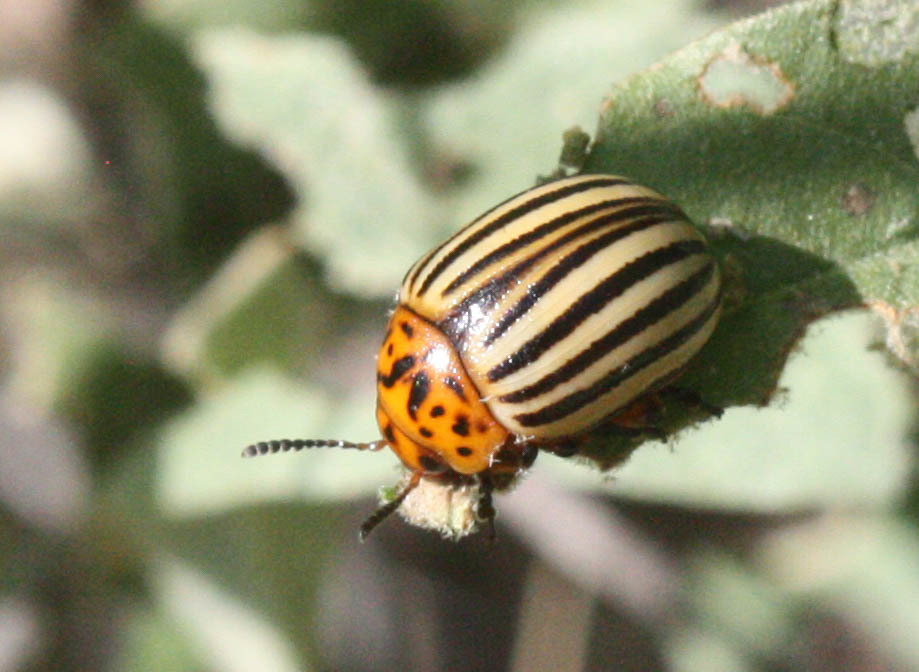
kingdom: Animalia
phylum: Arthropoda
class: Insecta
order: Coleoptera
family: Chrysomelidae
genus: Leptinotarsa
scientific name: Leptinotarsa decemlineata
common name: Colorado potato beetle
